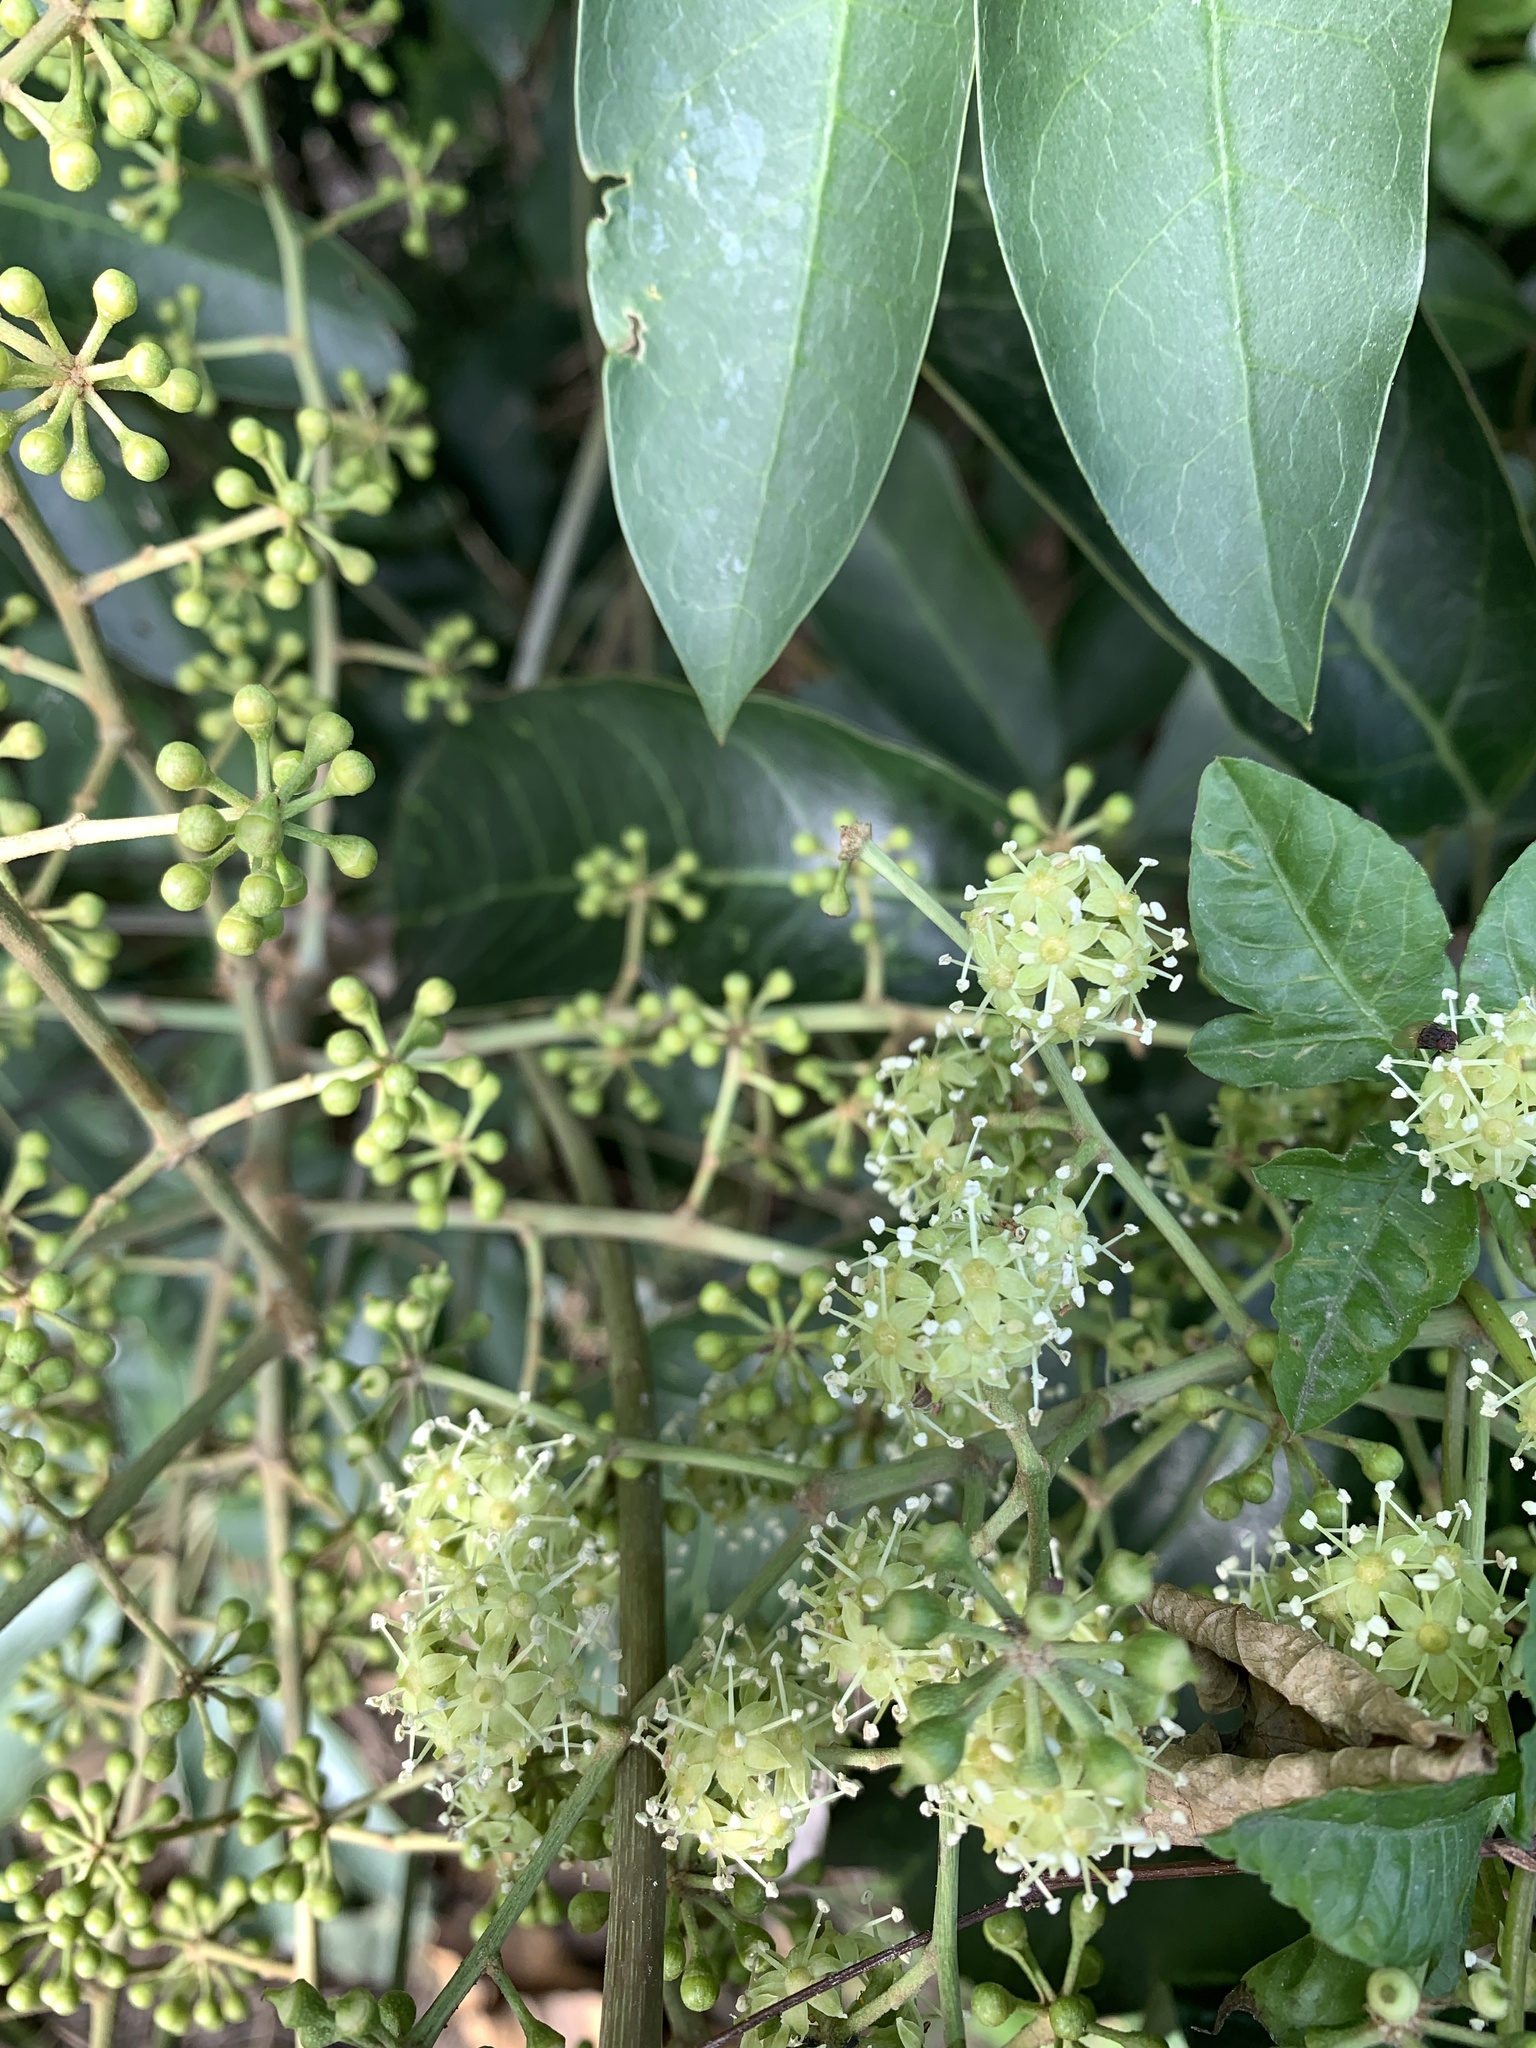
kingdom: Plantae
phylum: Tracheophyta
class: Magnoliopsida
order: Apiales
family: Araliaceae
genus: Heptapleurum
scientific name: Heptapleurum heptaphyllum
